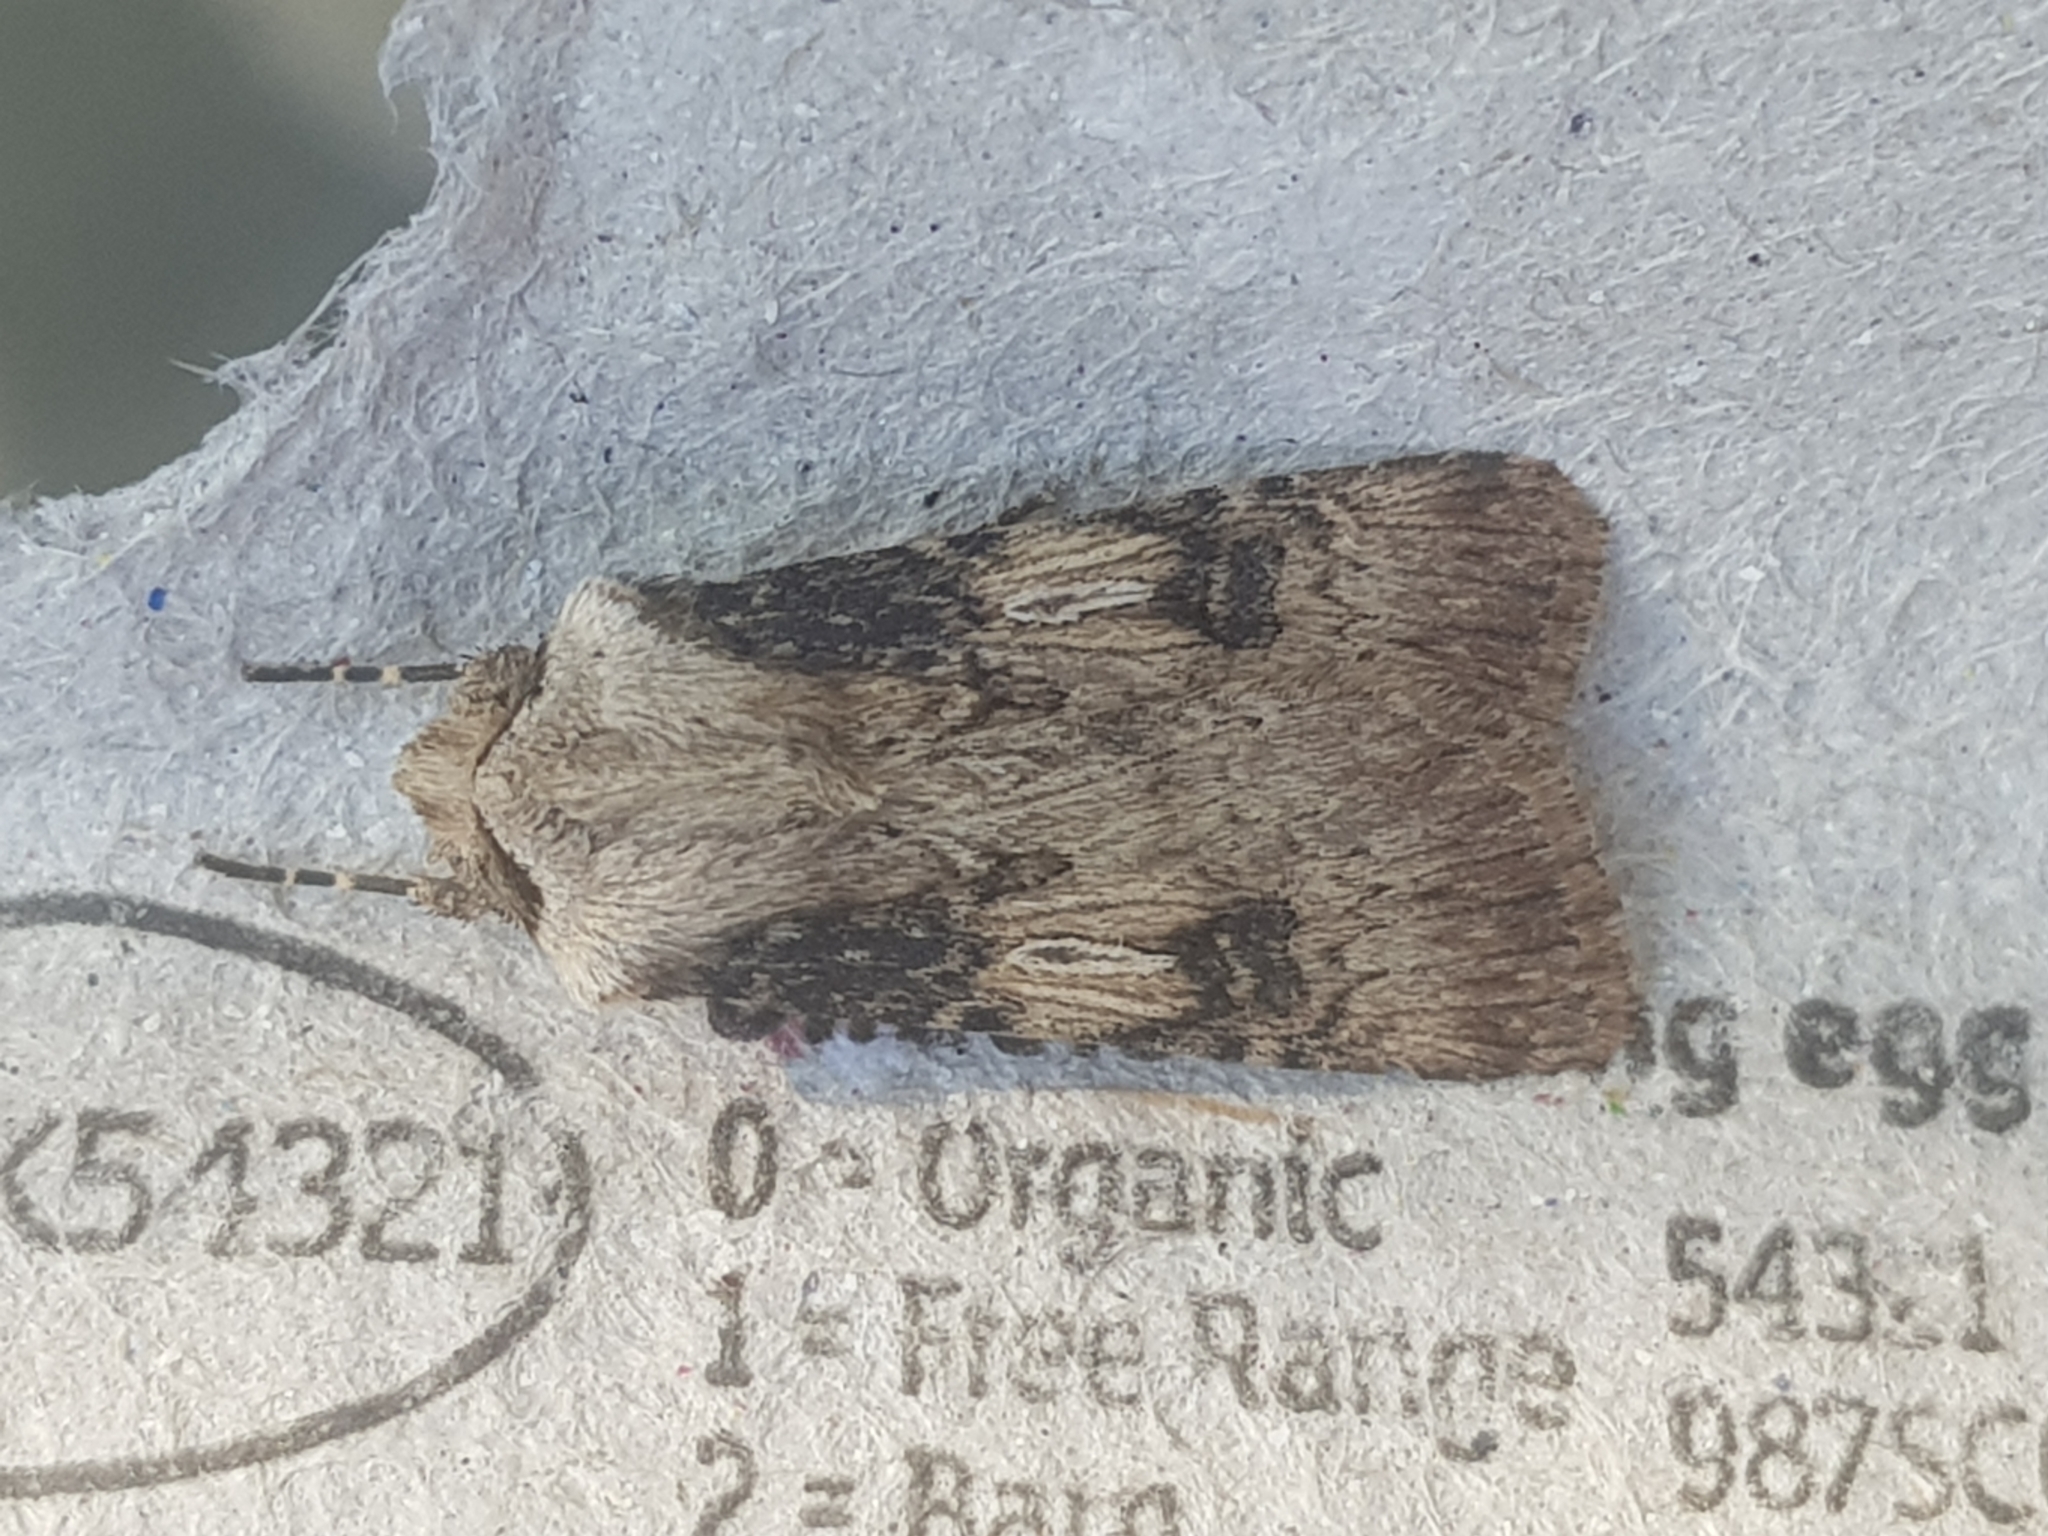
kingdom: Animalia
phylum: Arthropoda
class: Insecta
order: Lepidoptera
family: Noctuidae
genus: Agrotis
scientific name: Agrotis puta
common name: Shuttle-shaped dart
